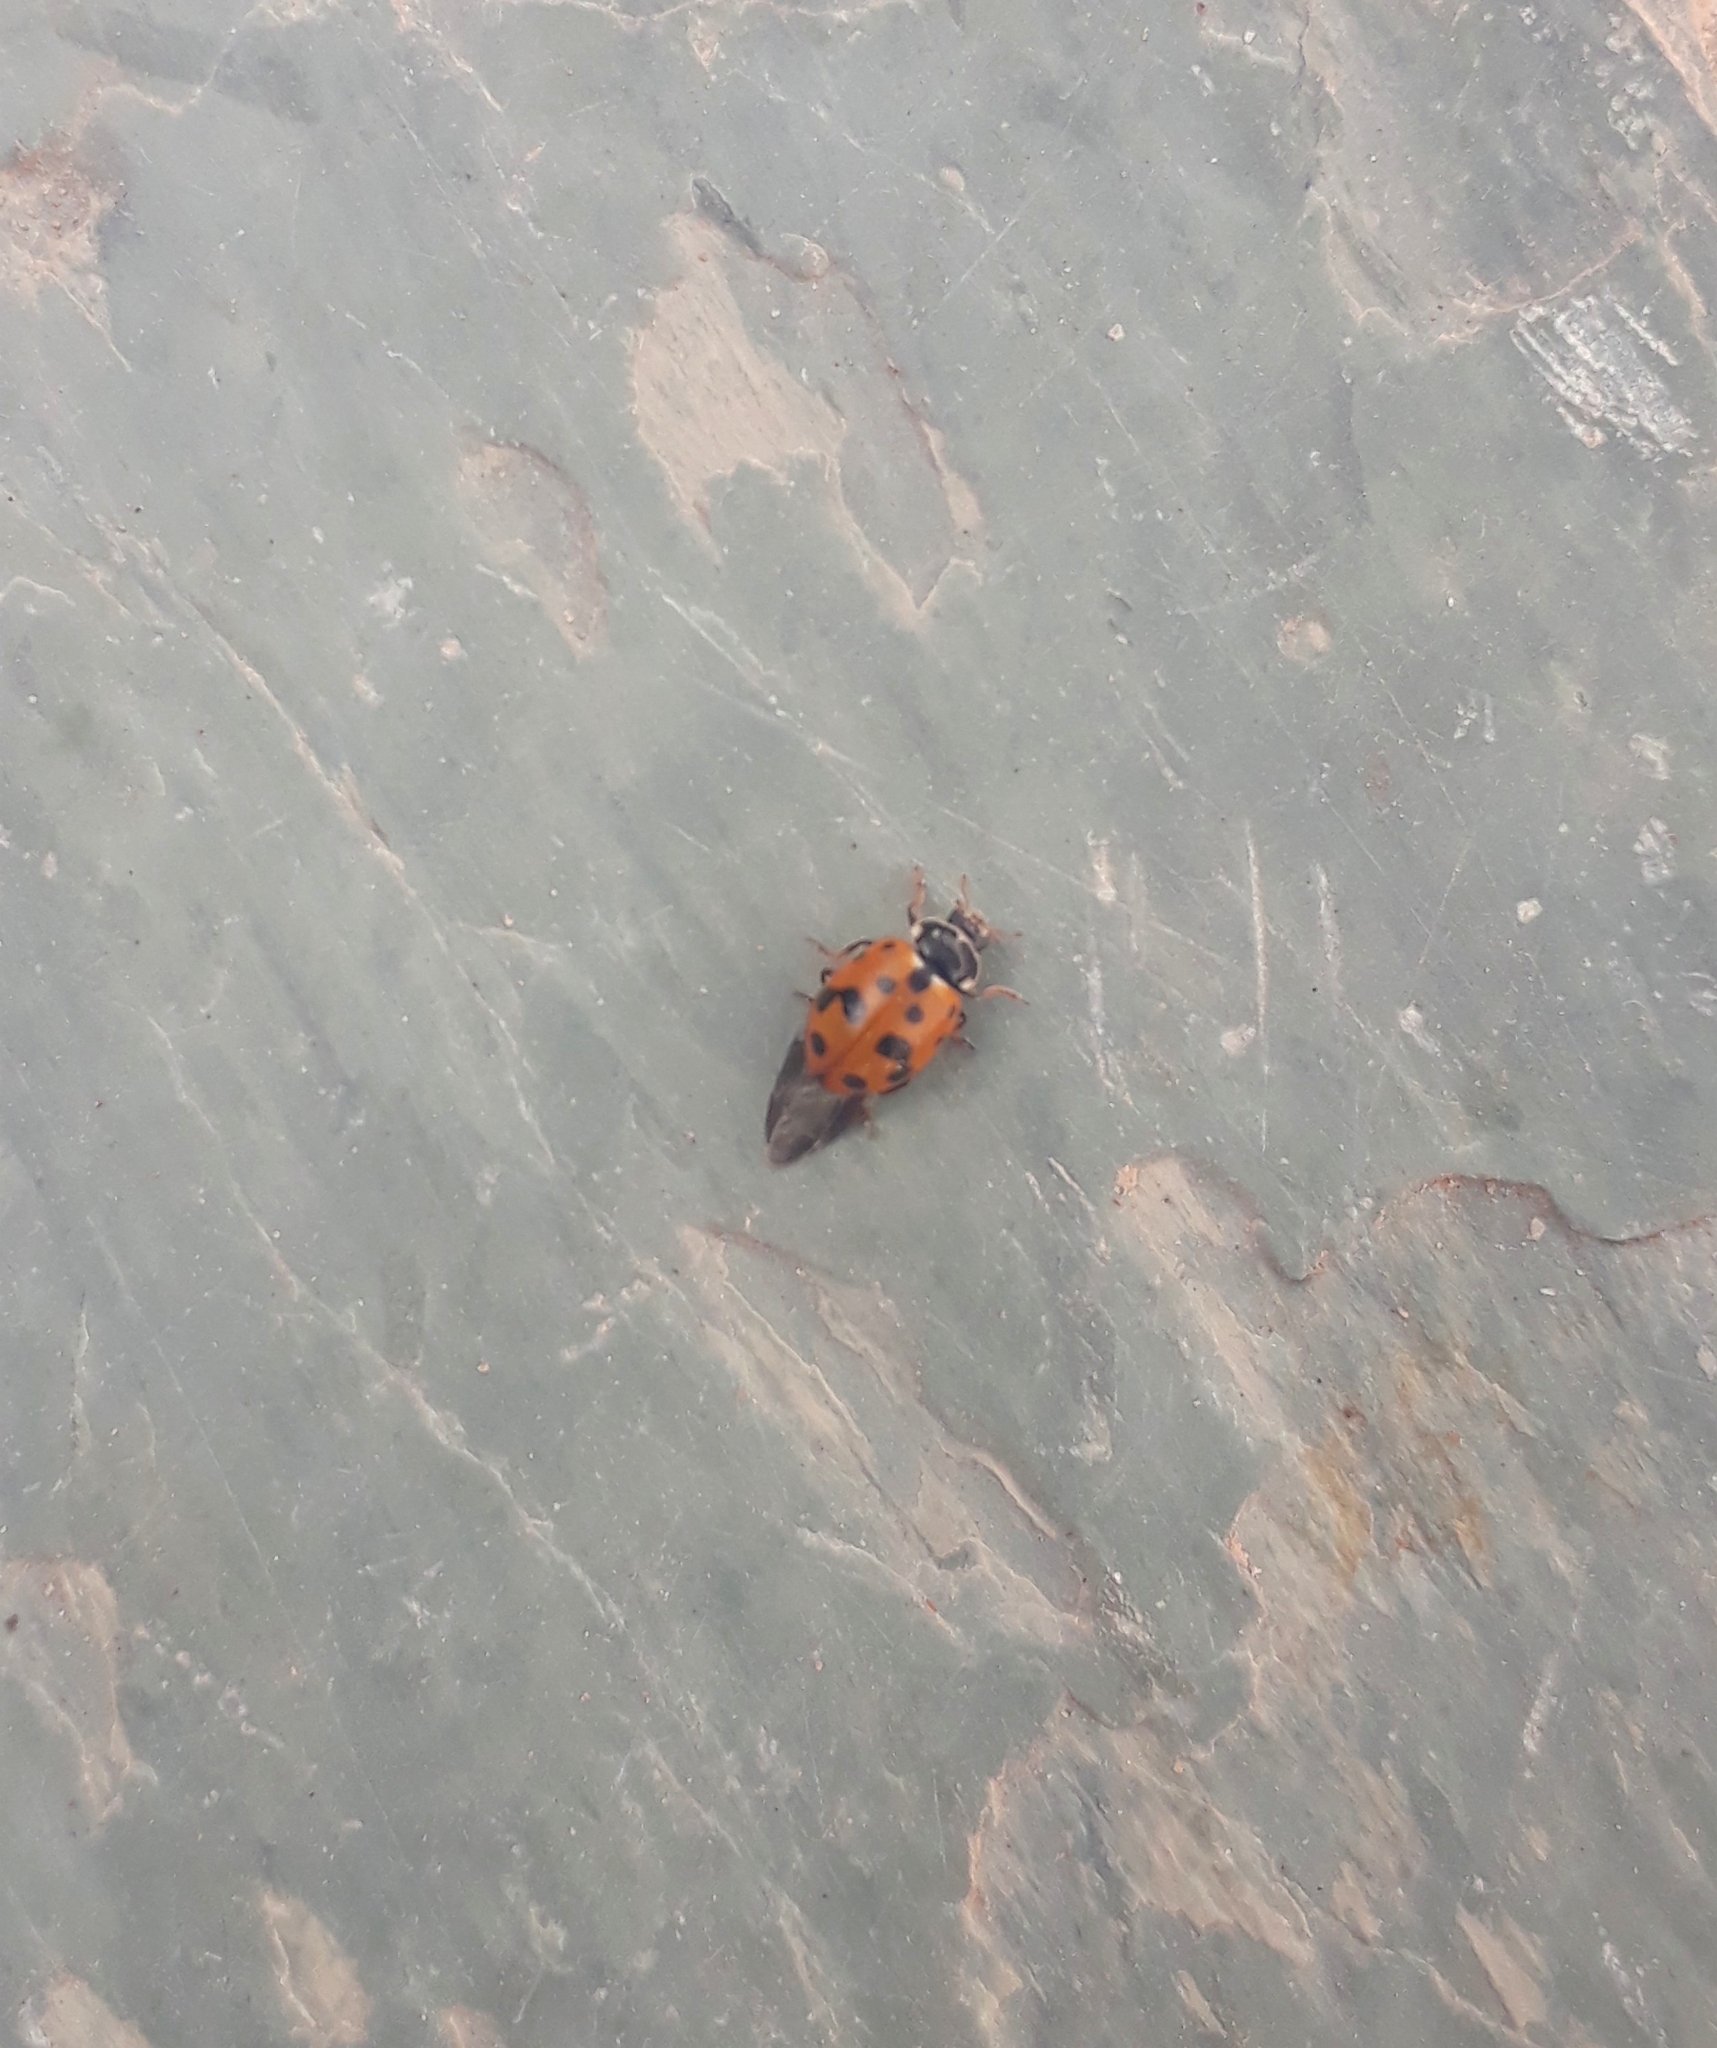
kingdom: Animalia
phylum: Arthropoda
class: Insecta
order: Coleoptera
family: Coccinellidae
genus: Hippodamia
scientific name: Hippodamia variegata
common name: Ladybird beetle
